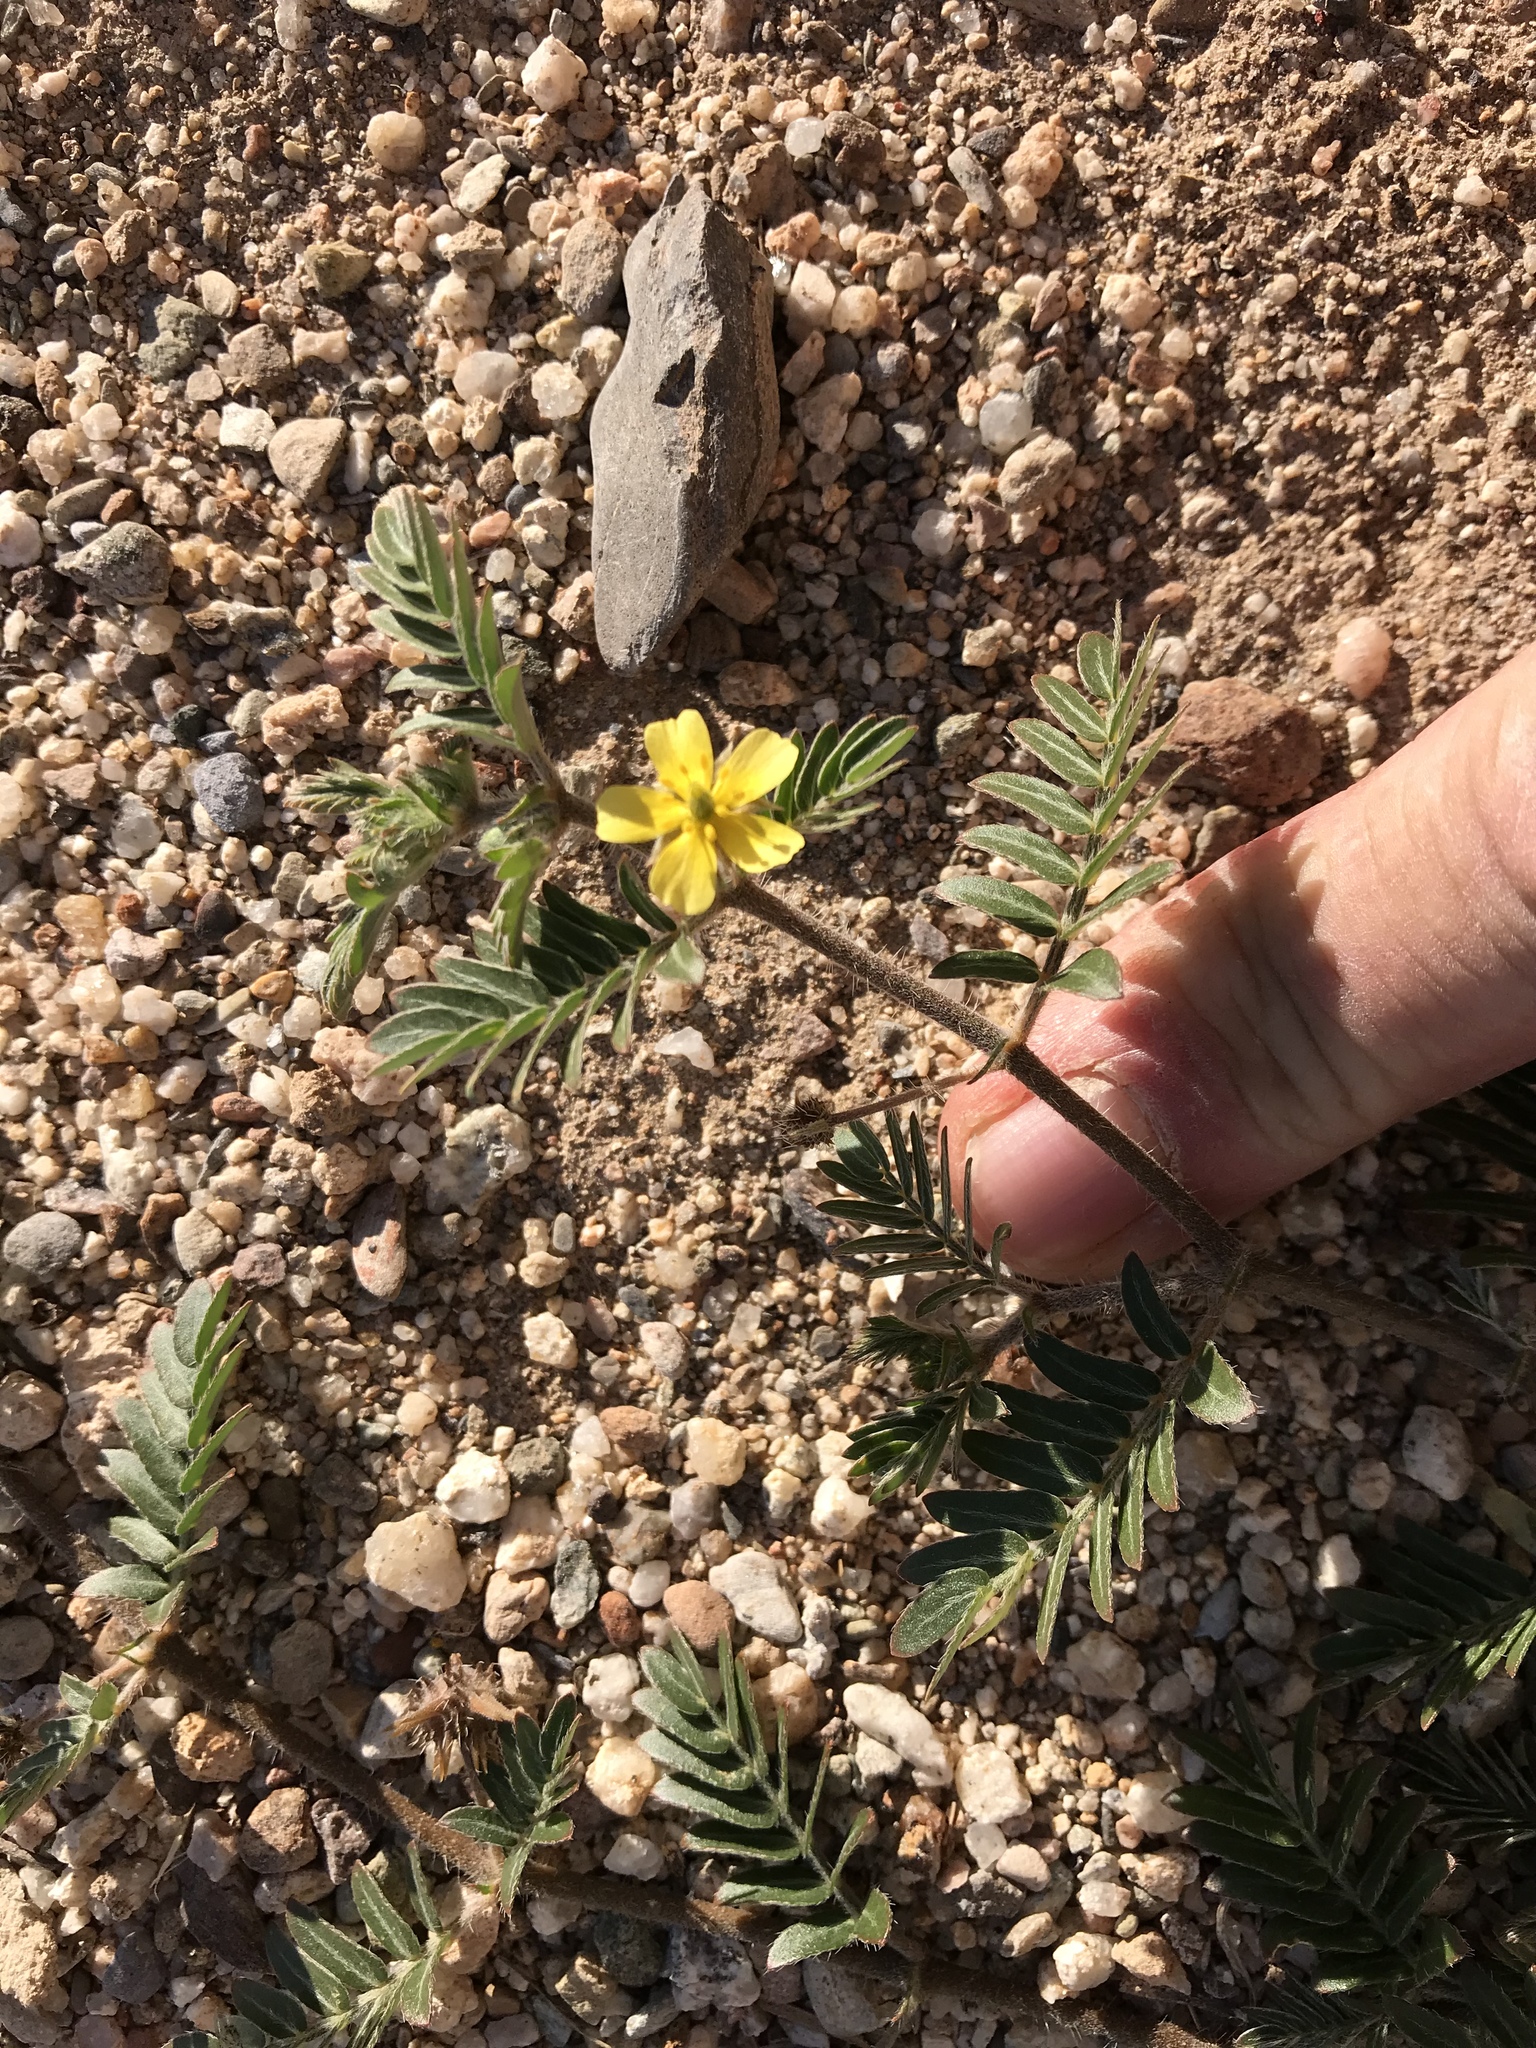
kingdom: Plantae
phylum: Tracheophyta
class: Magnoliopsida
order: Zygophyllales
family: Zygophyllaceae
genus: Tribulus
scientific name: Tribulus terrestris
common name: Puncturevine
